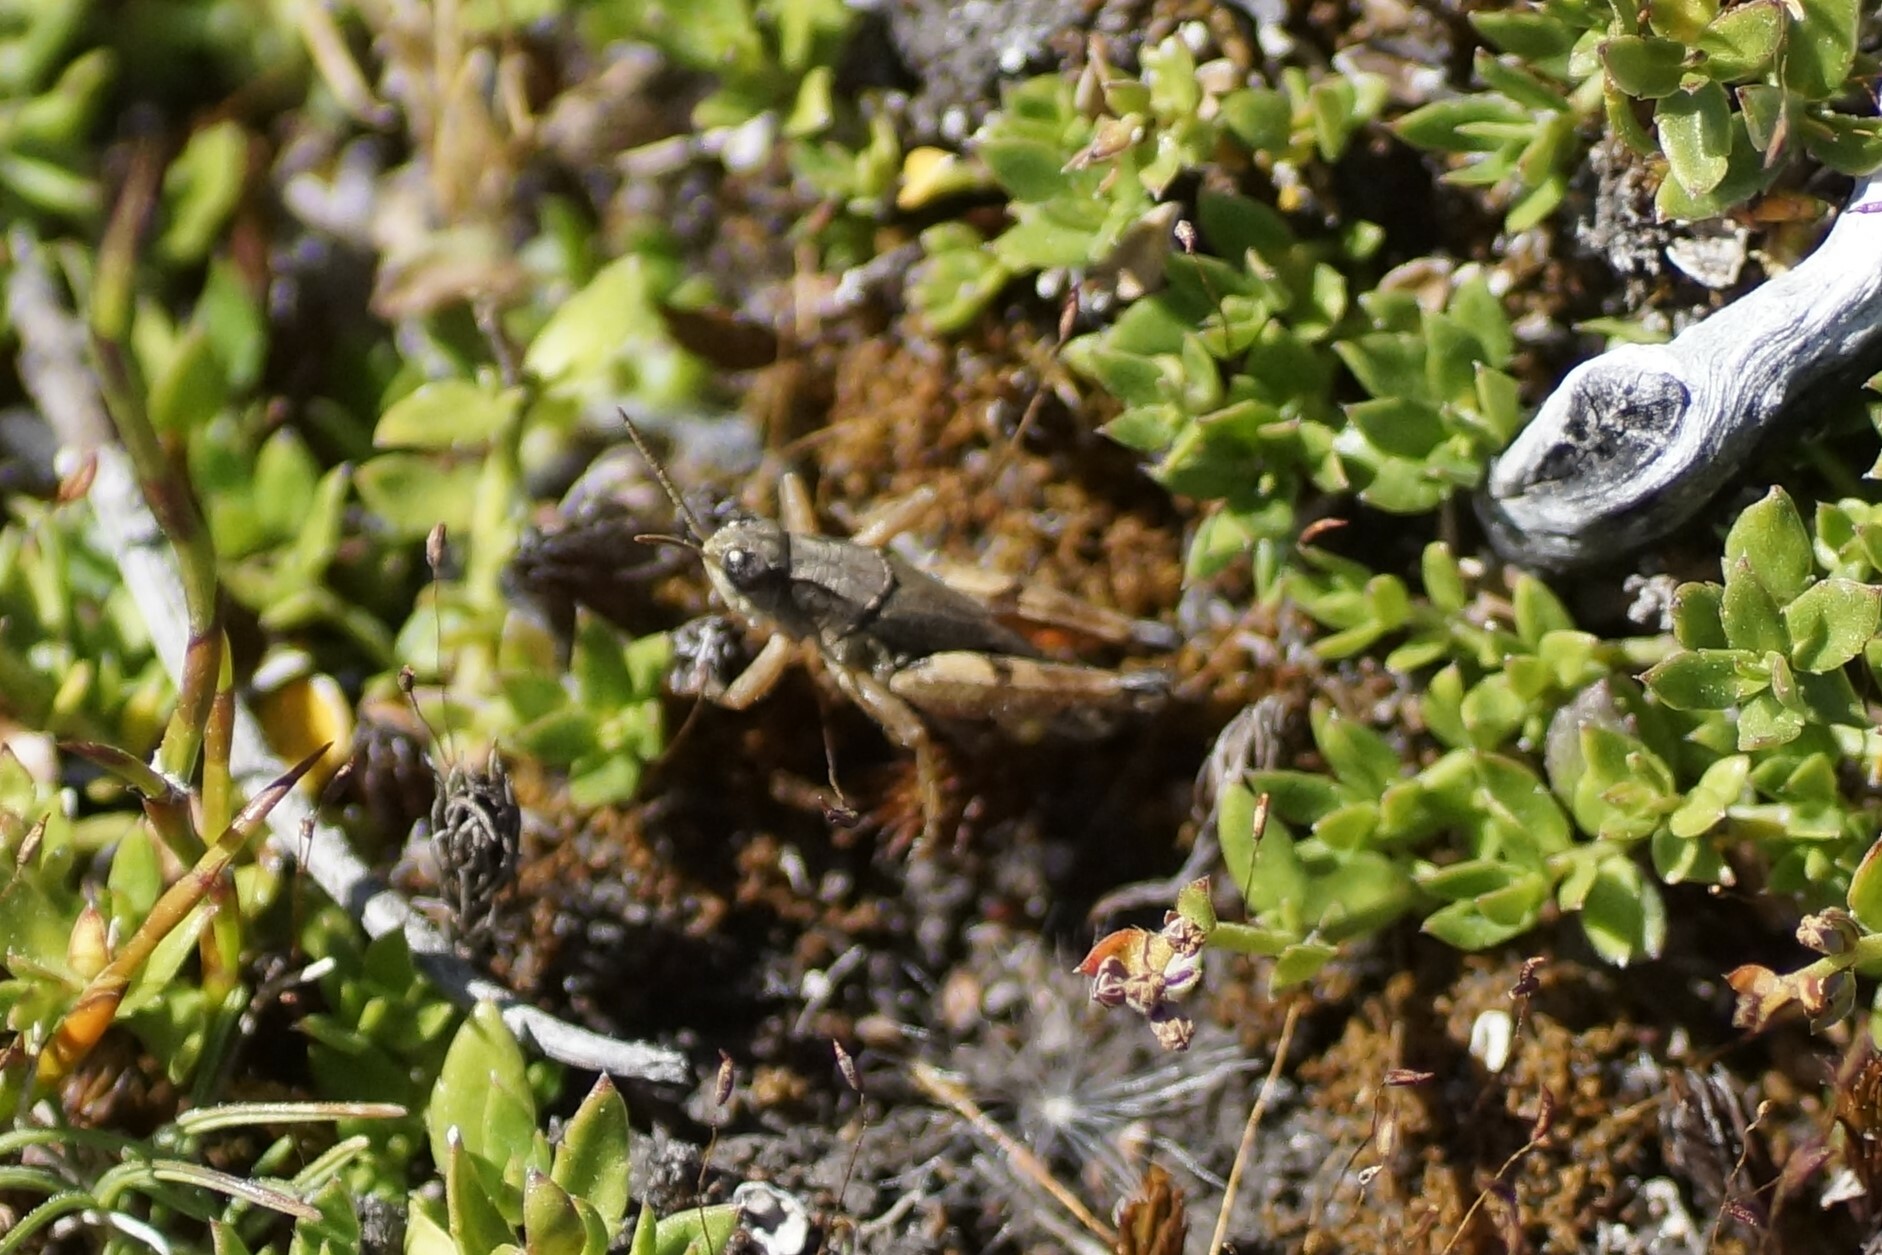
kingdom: Animalia
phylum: Arthropoda
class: Insecta
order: Orthoptera
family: Acrididae
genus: Phaulacridium
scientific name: Phaulacridium vittatum
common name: Wingless grasshopper
